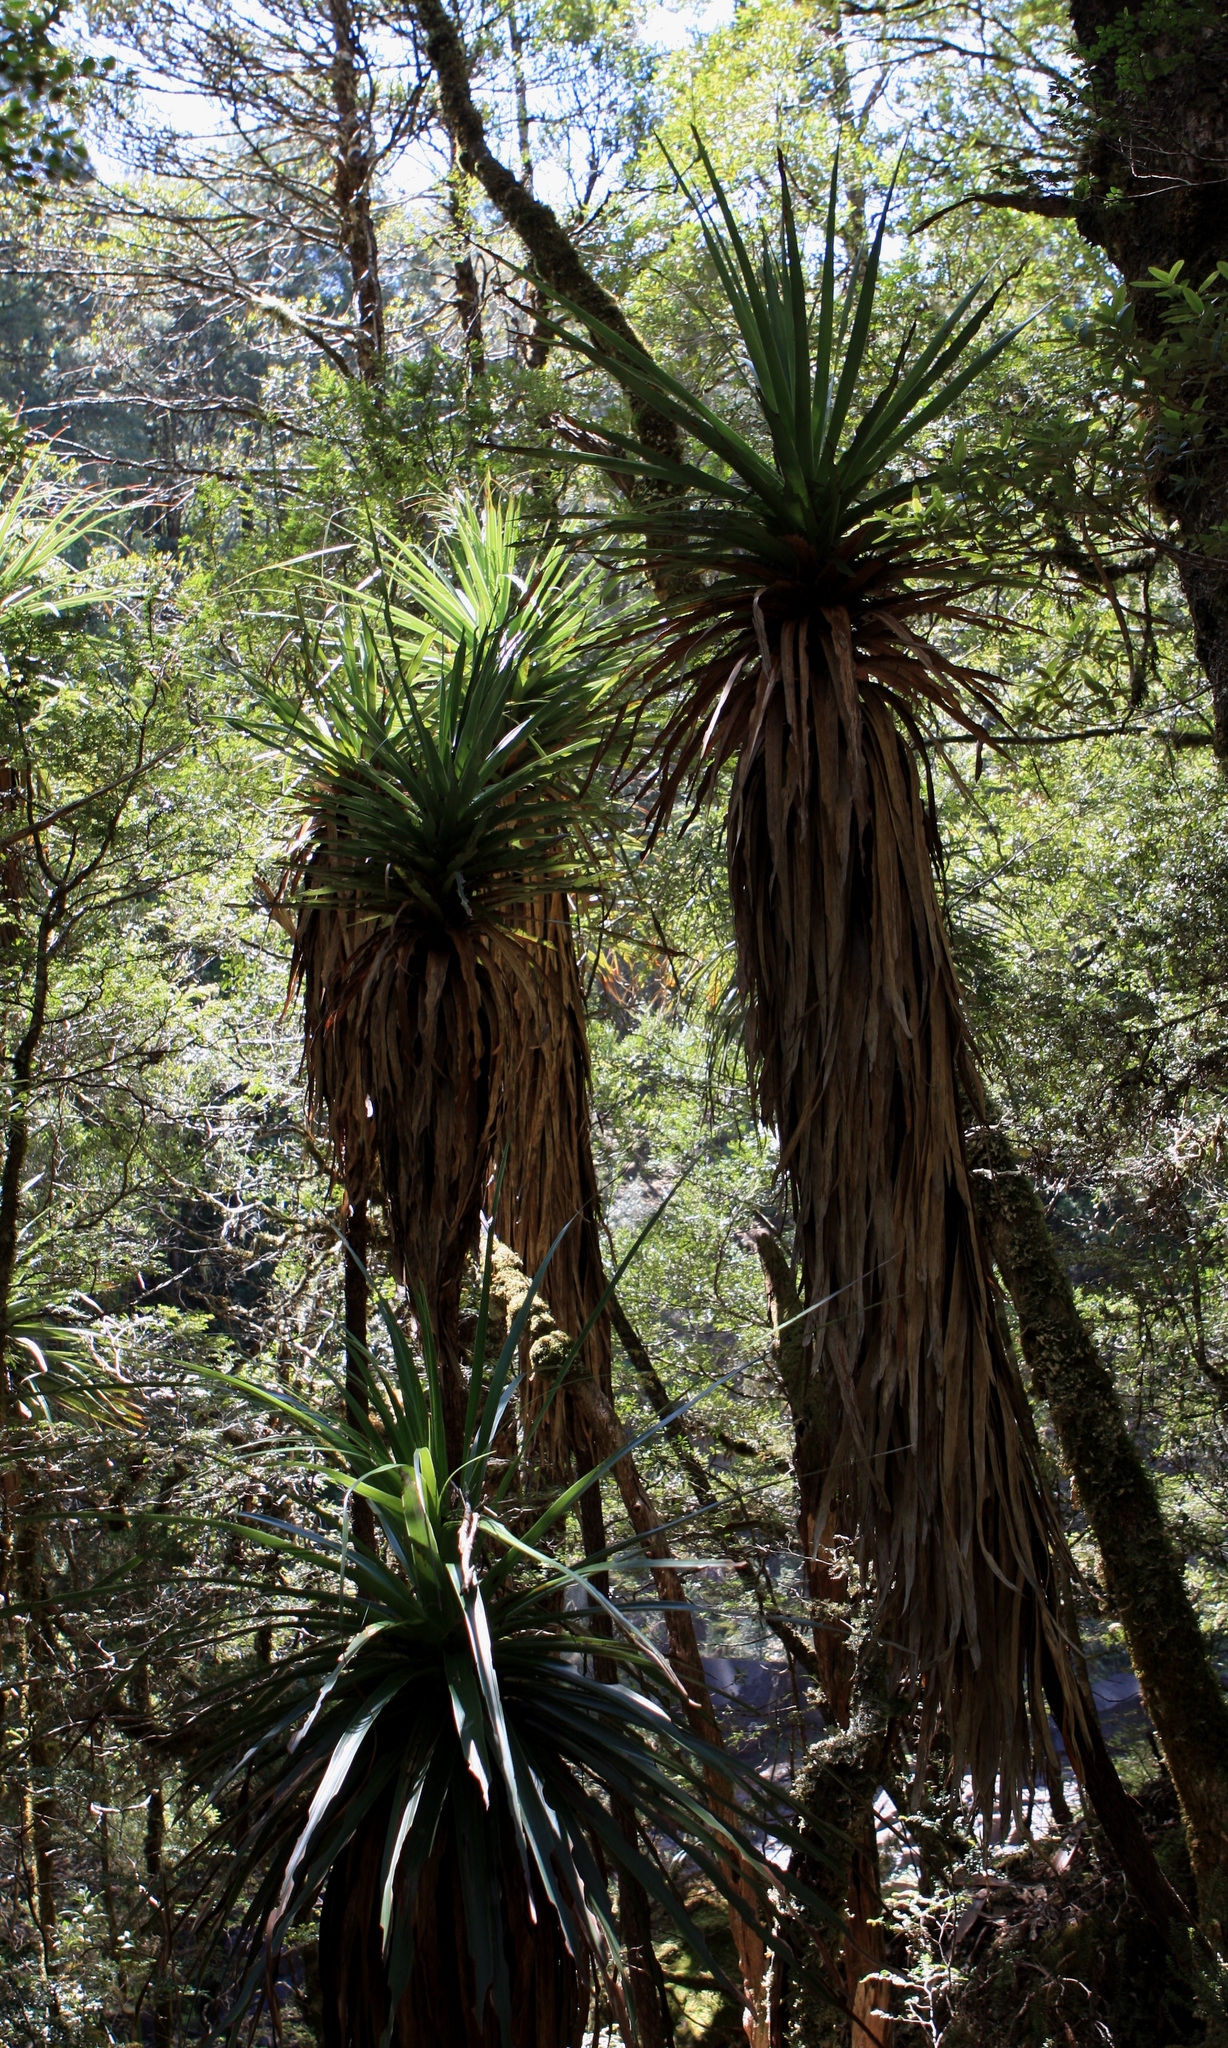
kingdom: Plantae
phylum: Tracheophyta
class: Magnoliopsida
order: Ericales
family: Ericaceae
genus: Dracophyllum
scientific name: Dracophyllum pandanifolium
